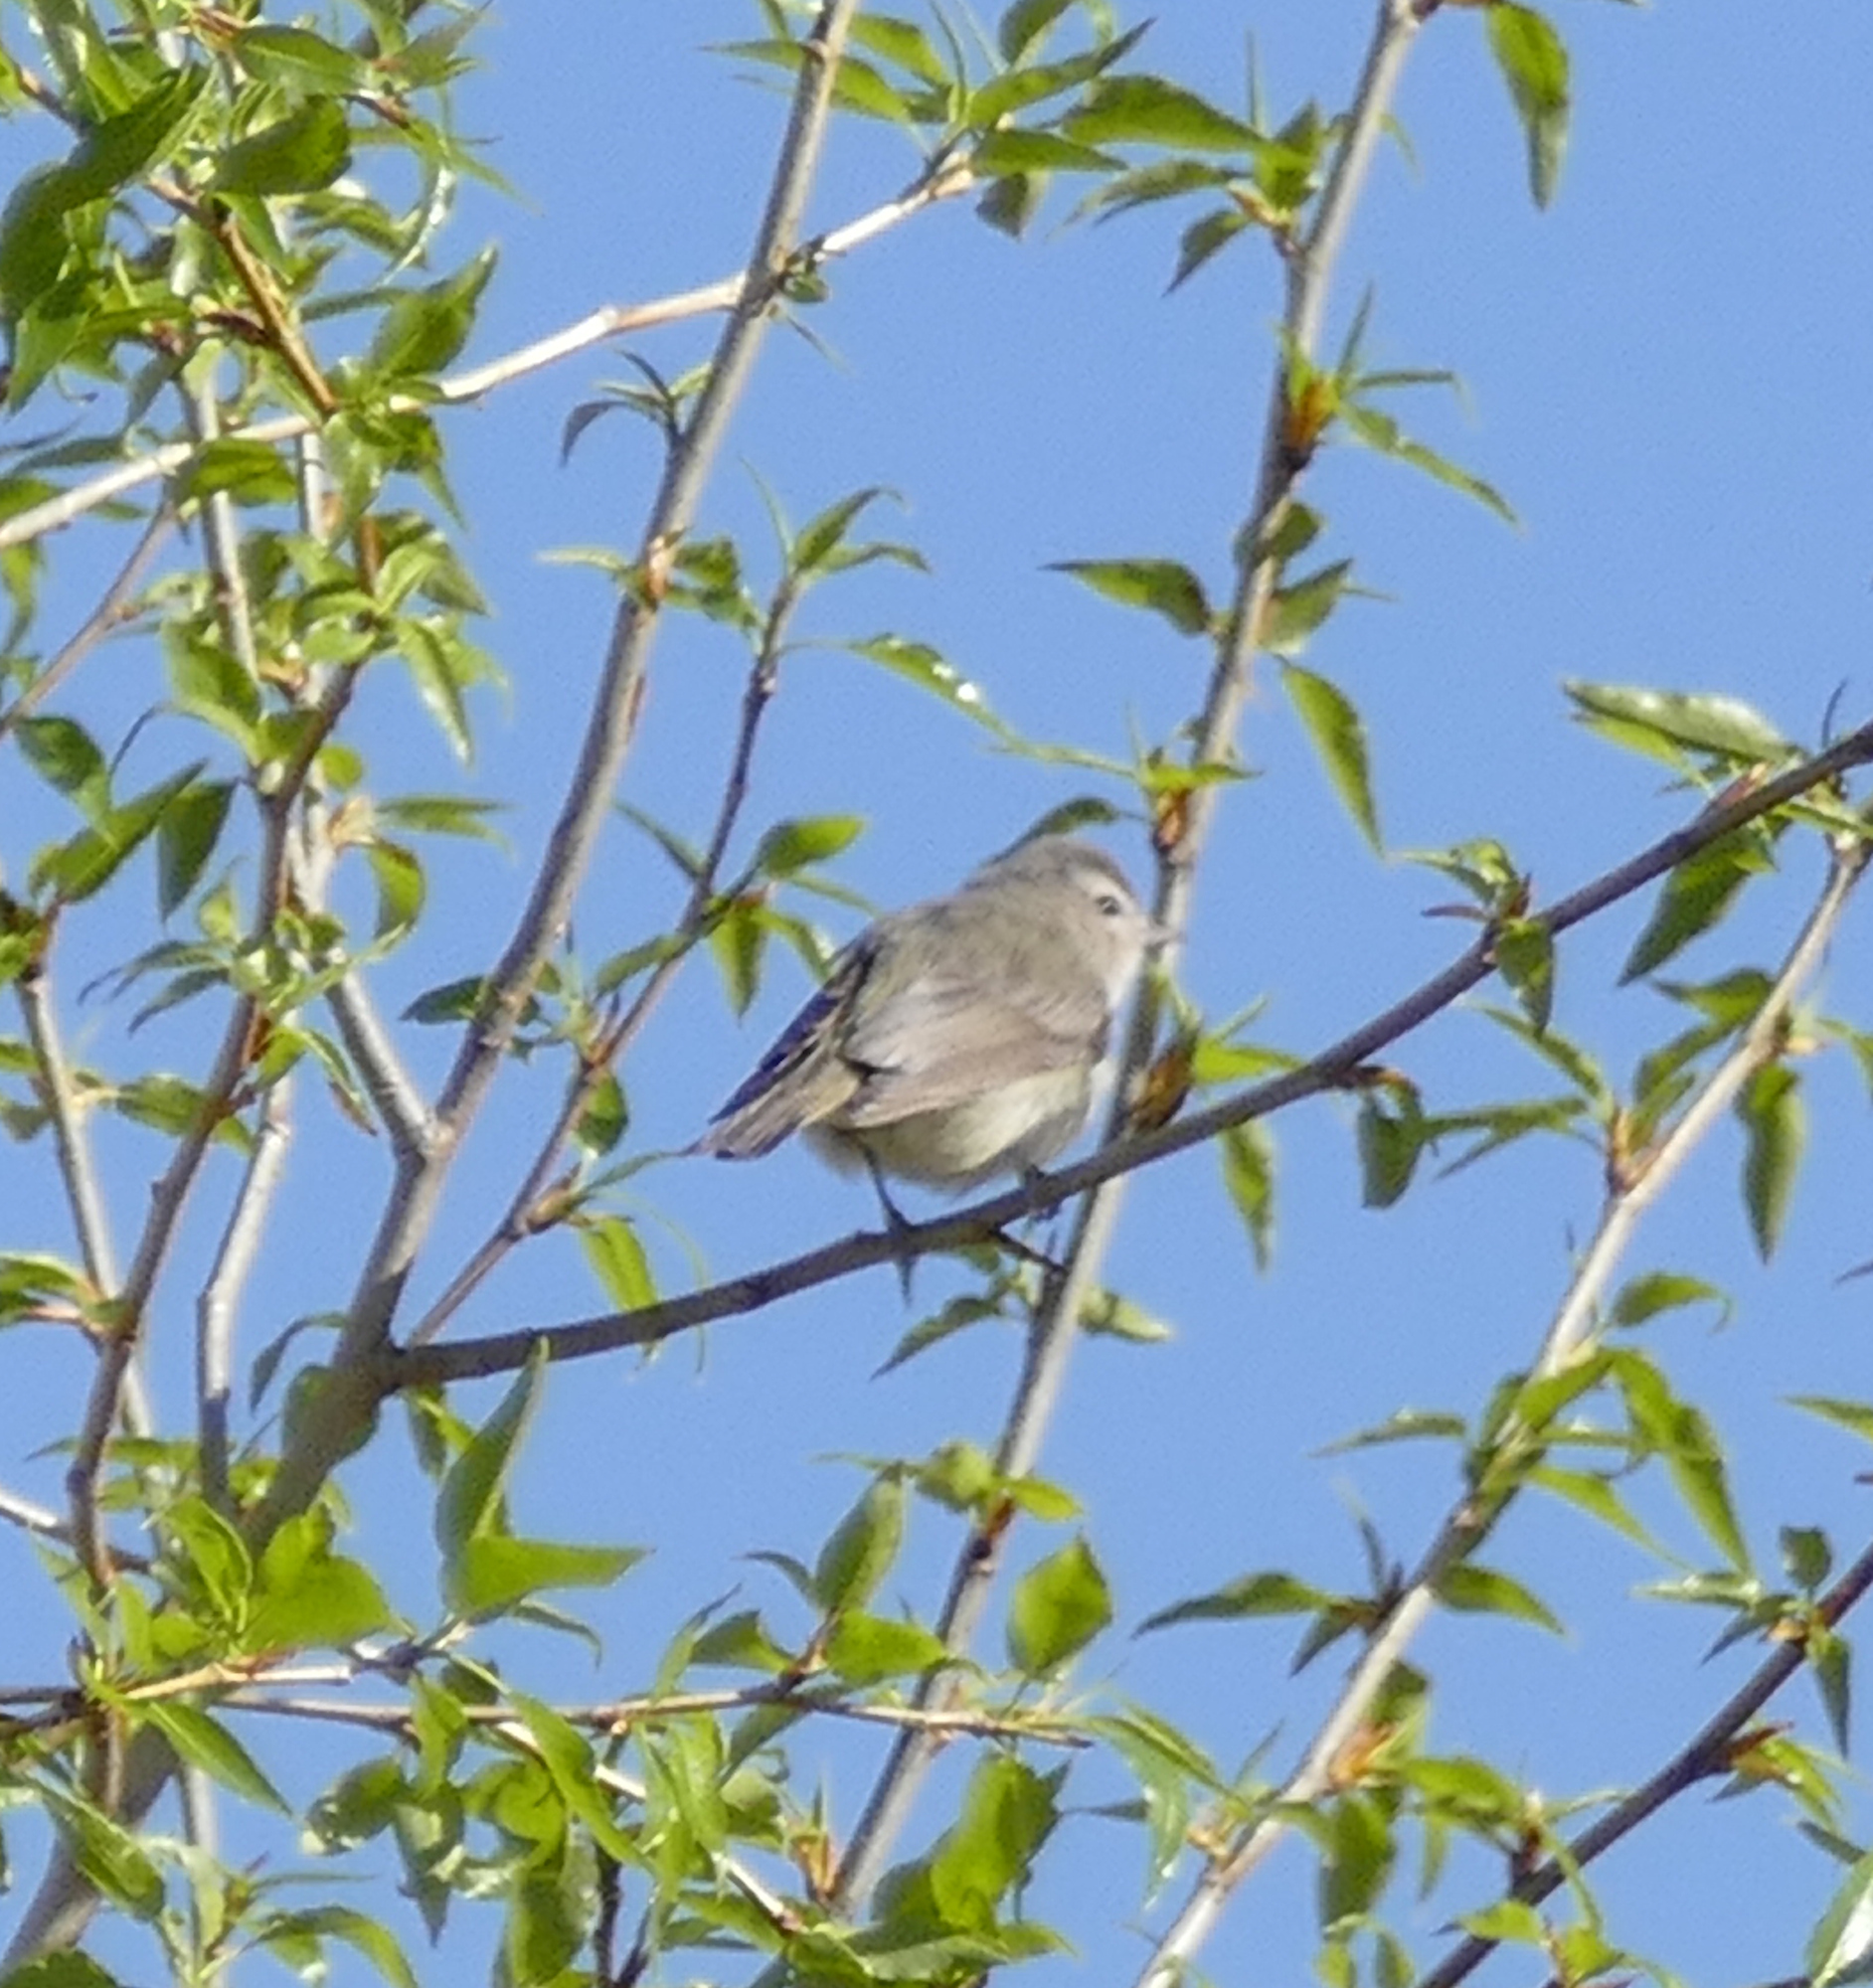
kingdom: Animalia
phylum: Chordata
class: Aves
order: Passeriformes
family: Vireonidae
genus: Vireo
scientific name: Vireo gilvus
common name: Warbling vireo
